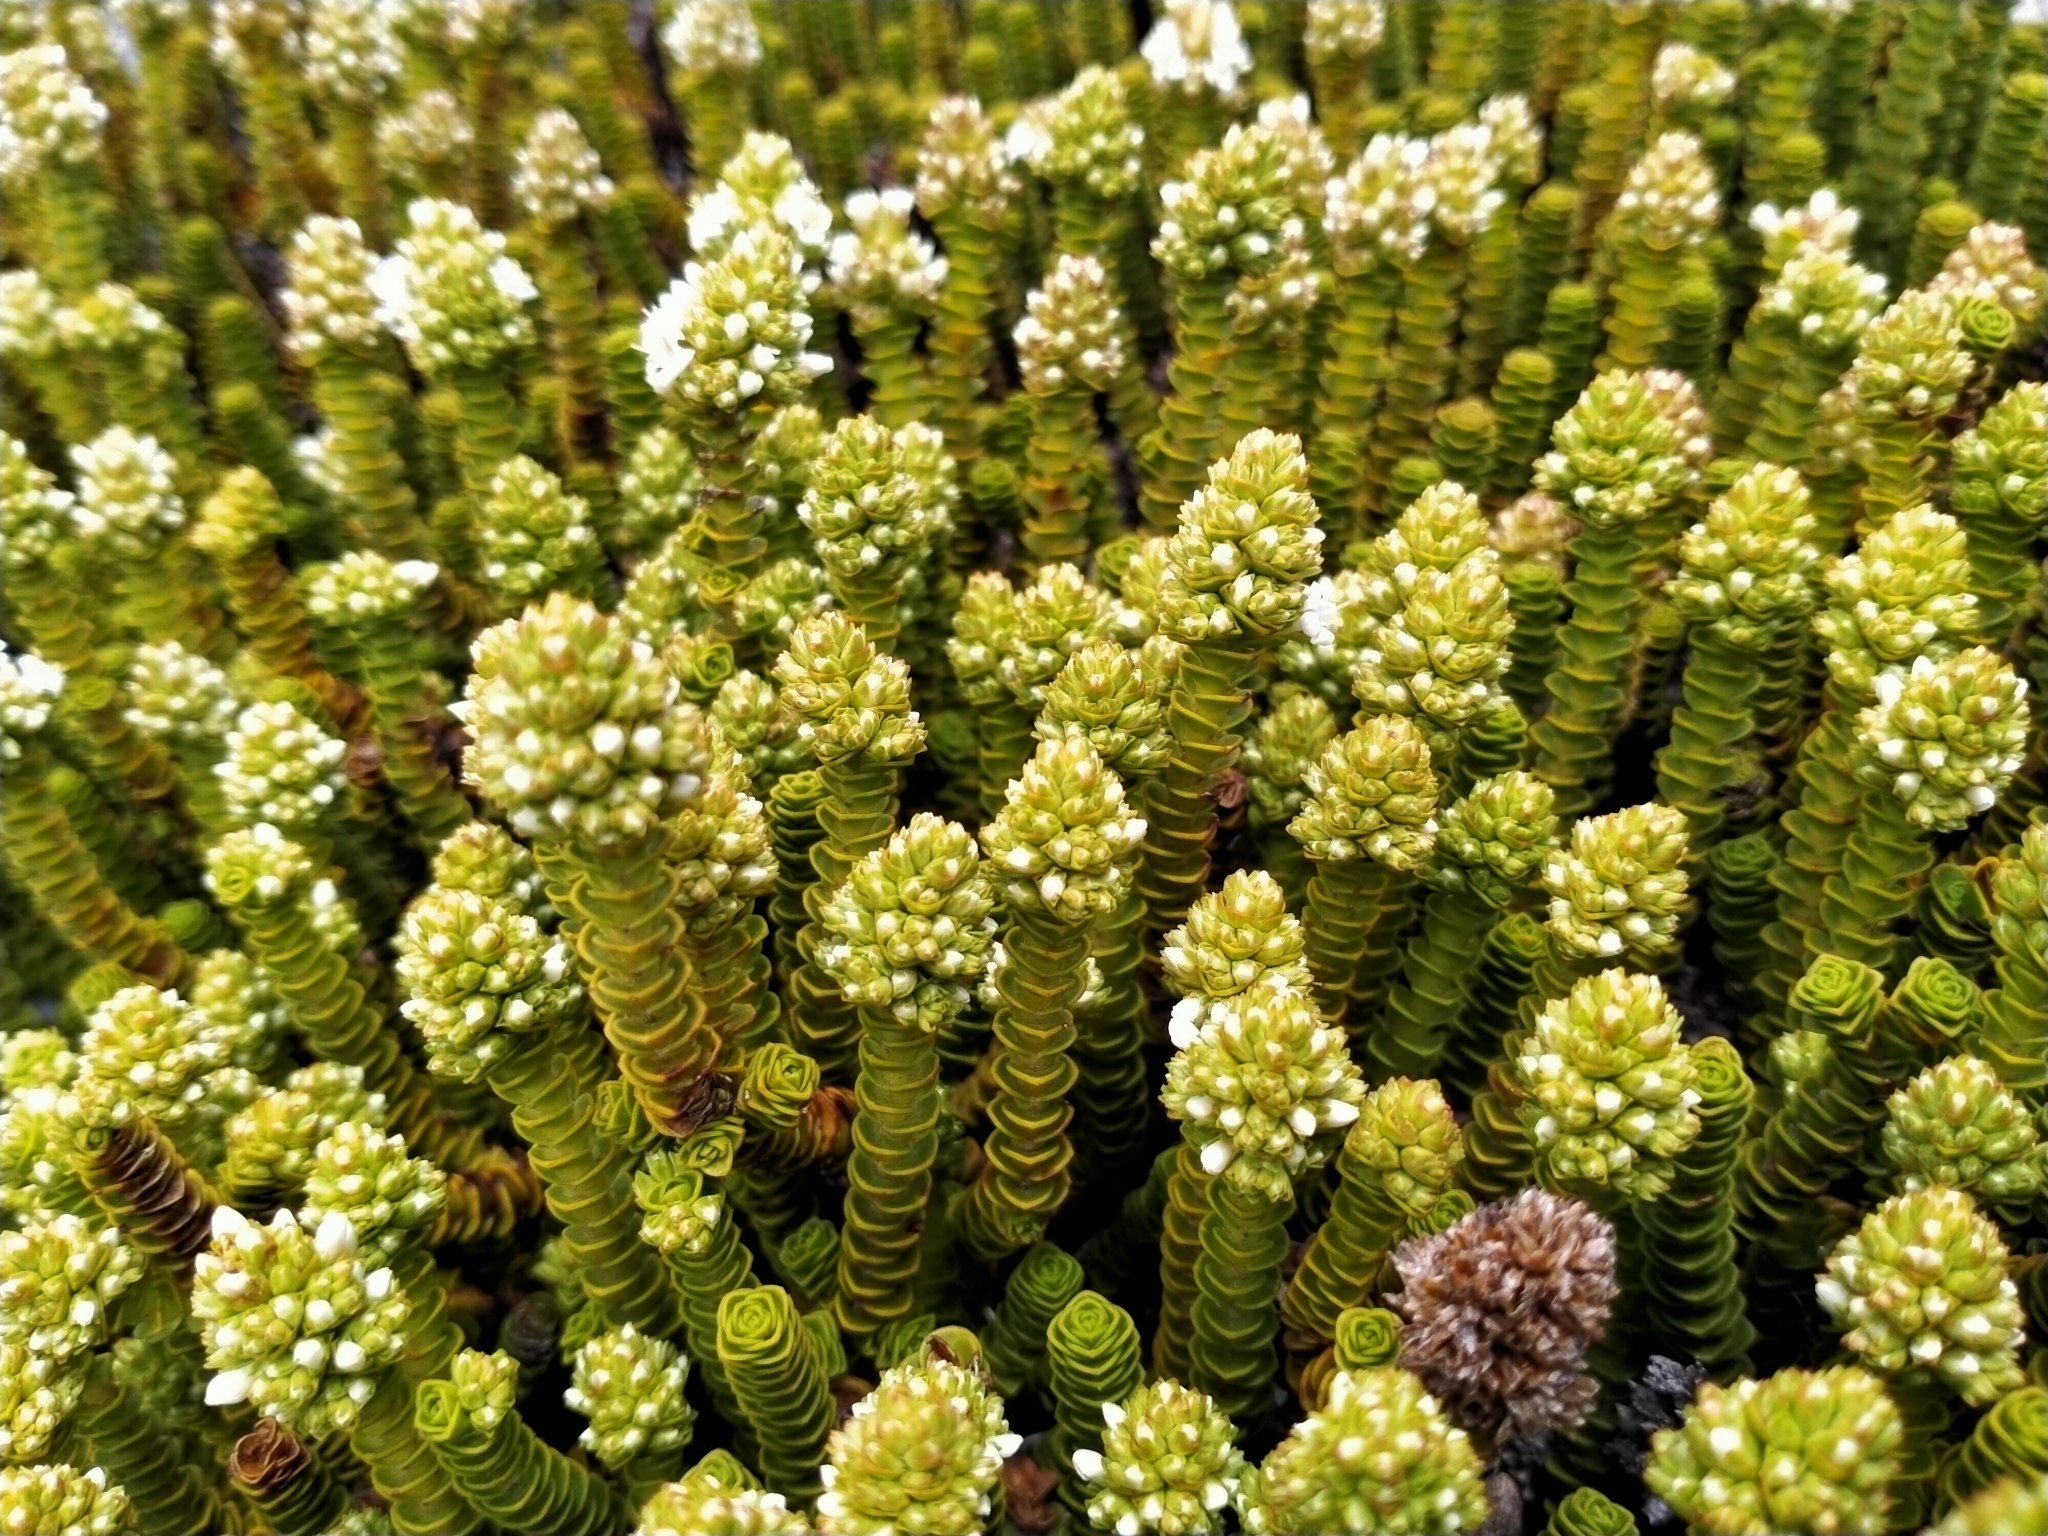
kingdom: Plantae
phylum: Tracheophyta
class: Magnoliopsida
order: Lamiales
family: Plantaginaceae
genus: Veronica
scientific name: Veronica epacridea
